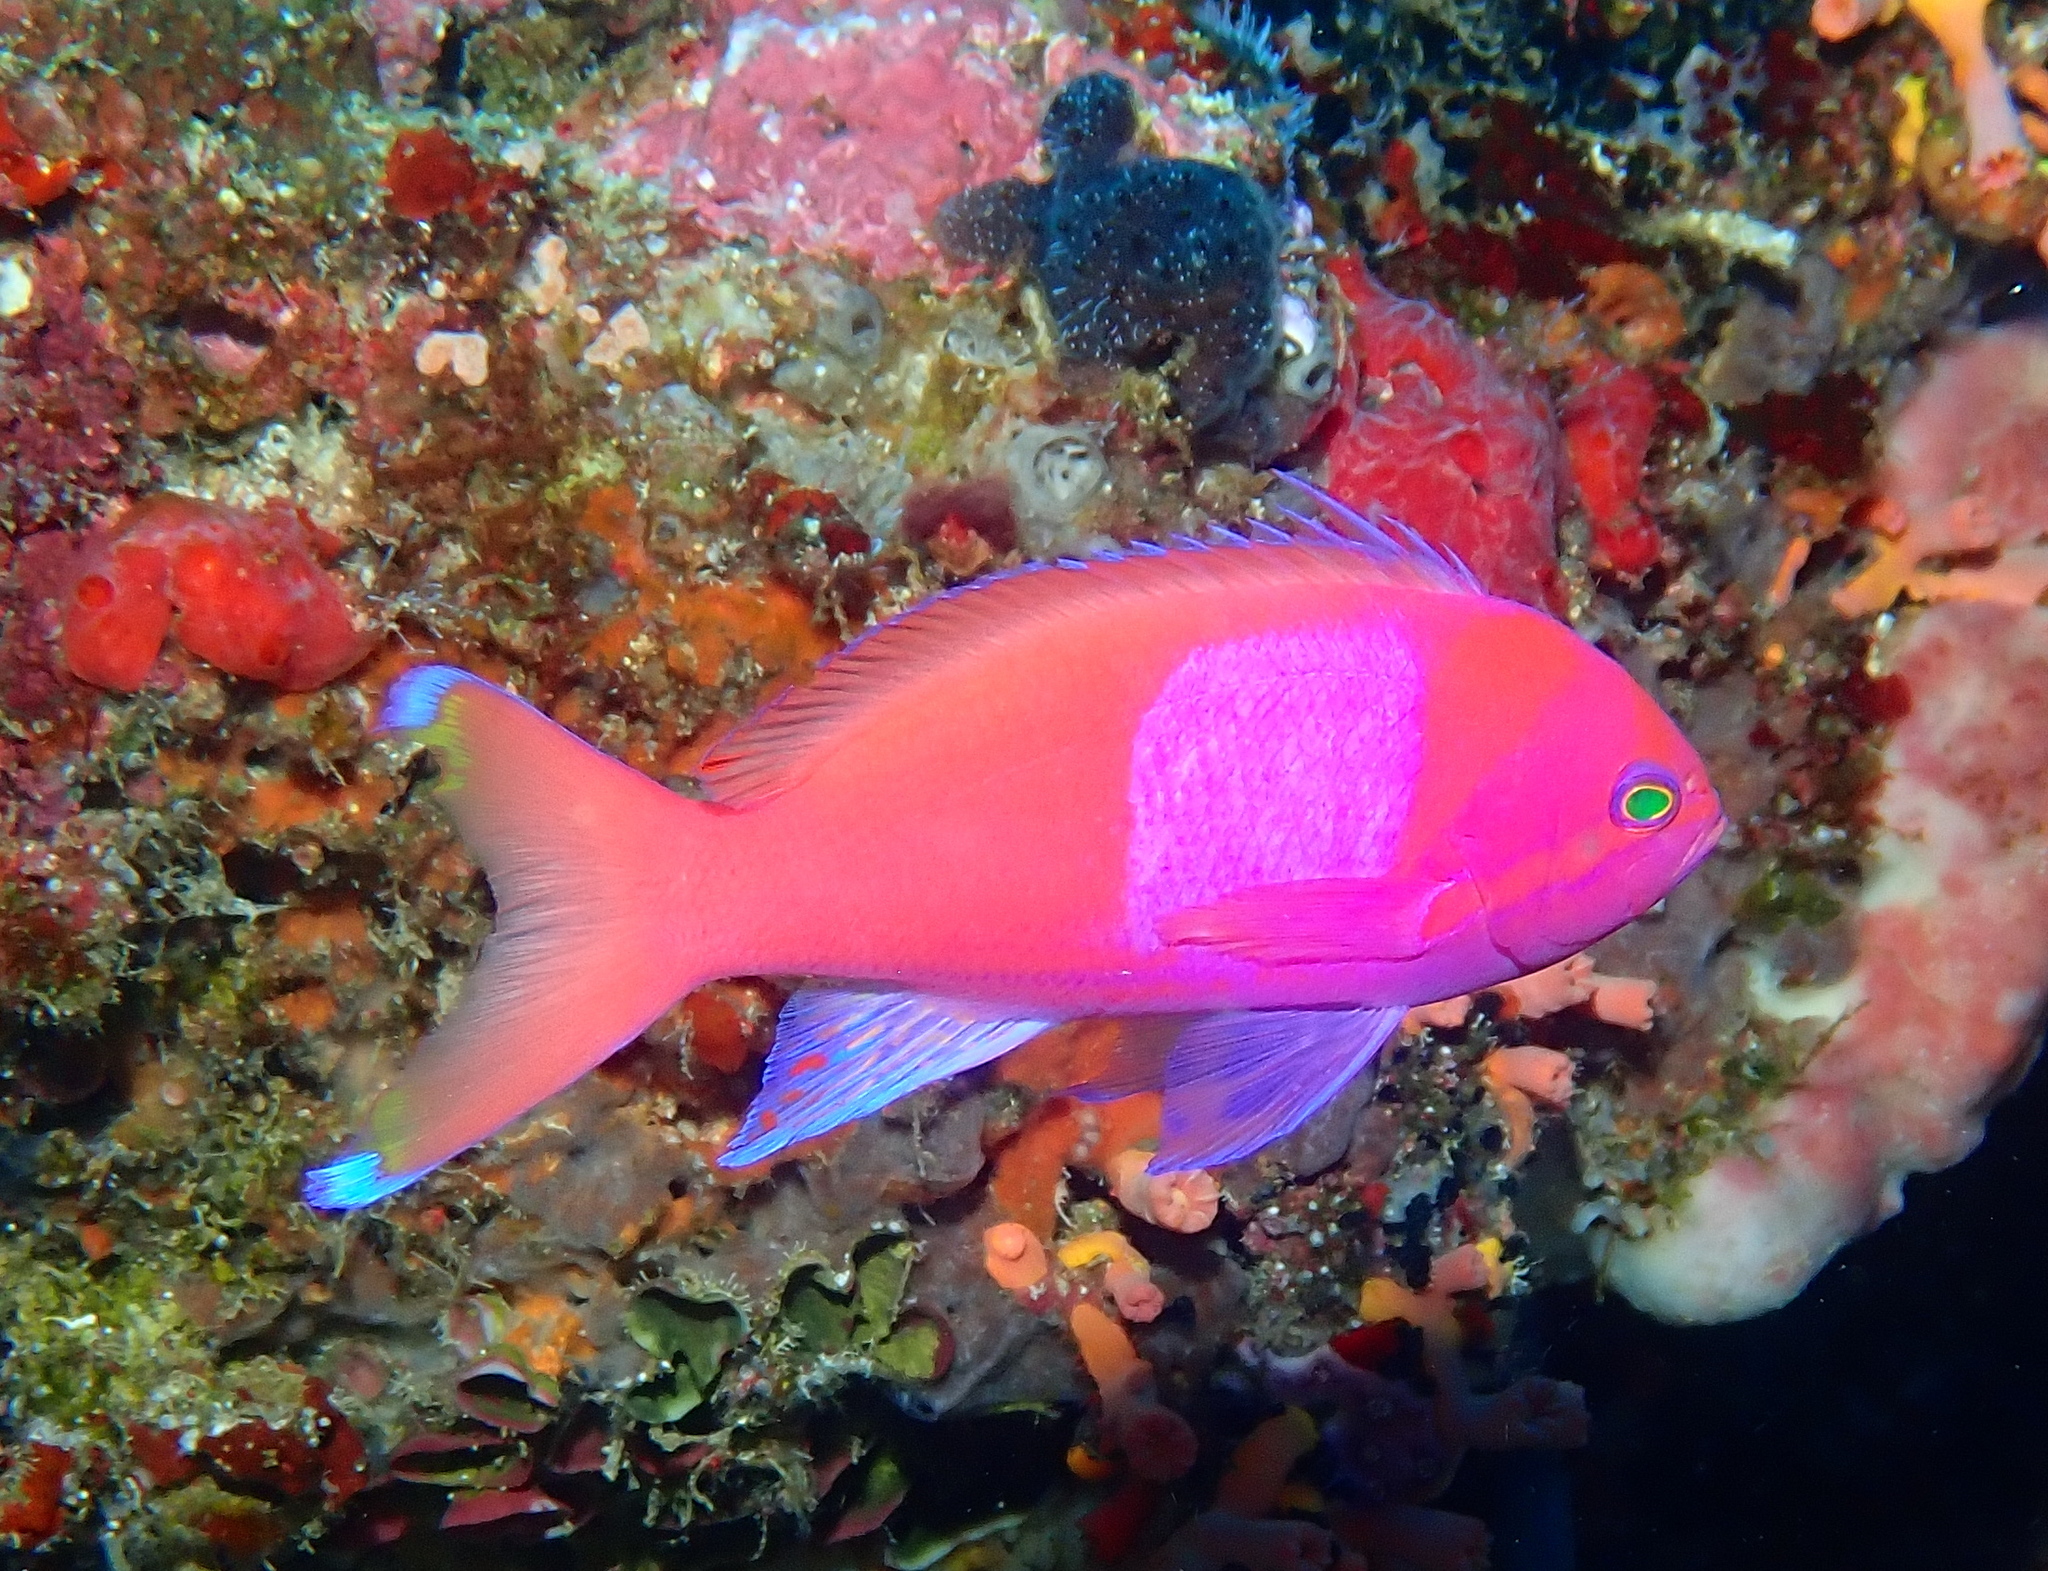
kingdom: Animalia
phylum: Chordata
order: Perciformes
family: Serranidae
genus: Pseudanthias
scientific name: Pseudanthias pleurotaenia
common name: Mirror basslet
